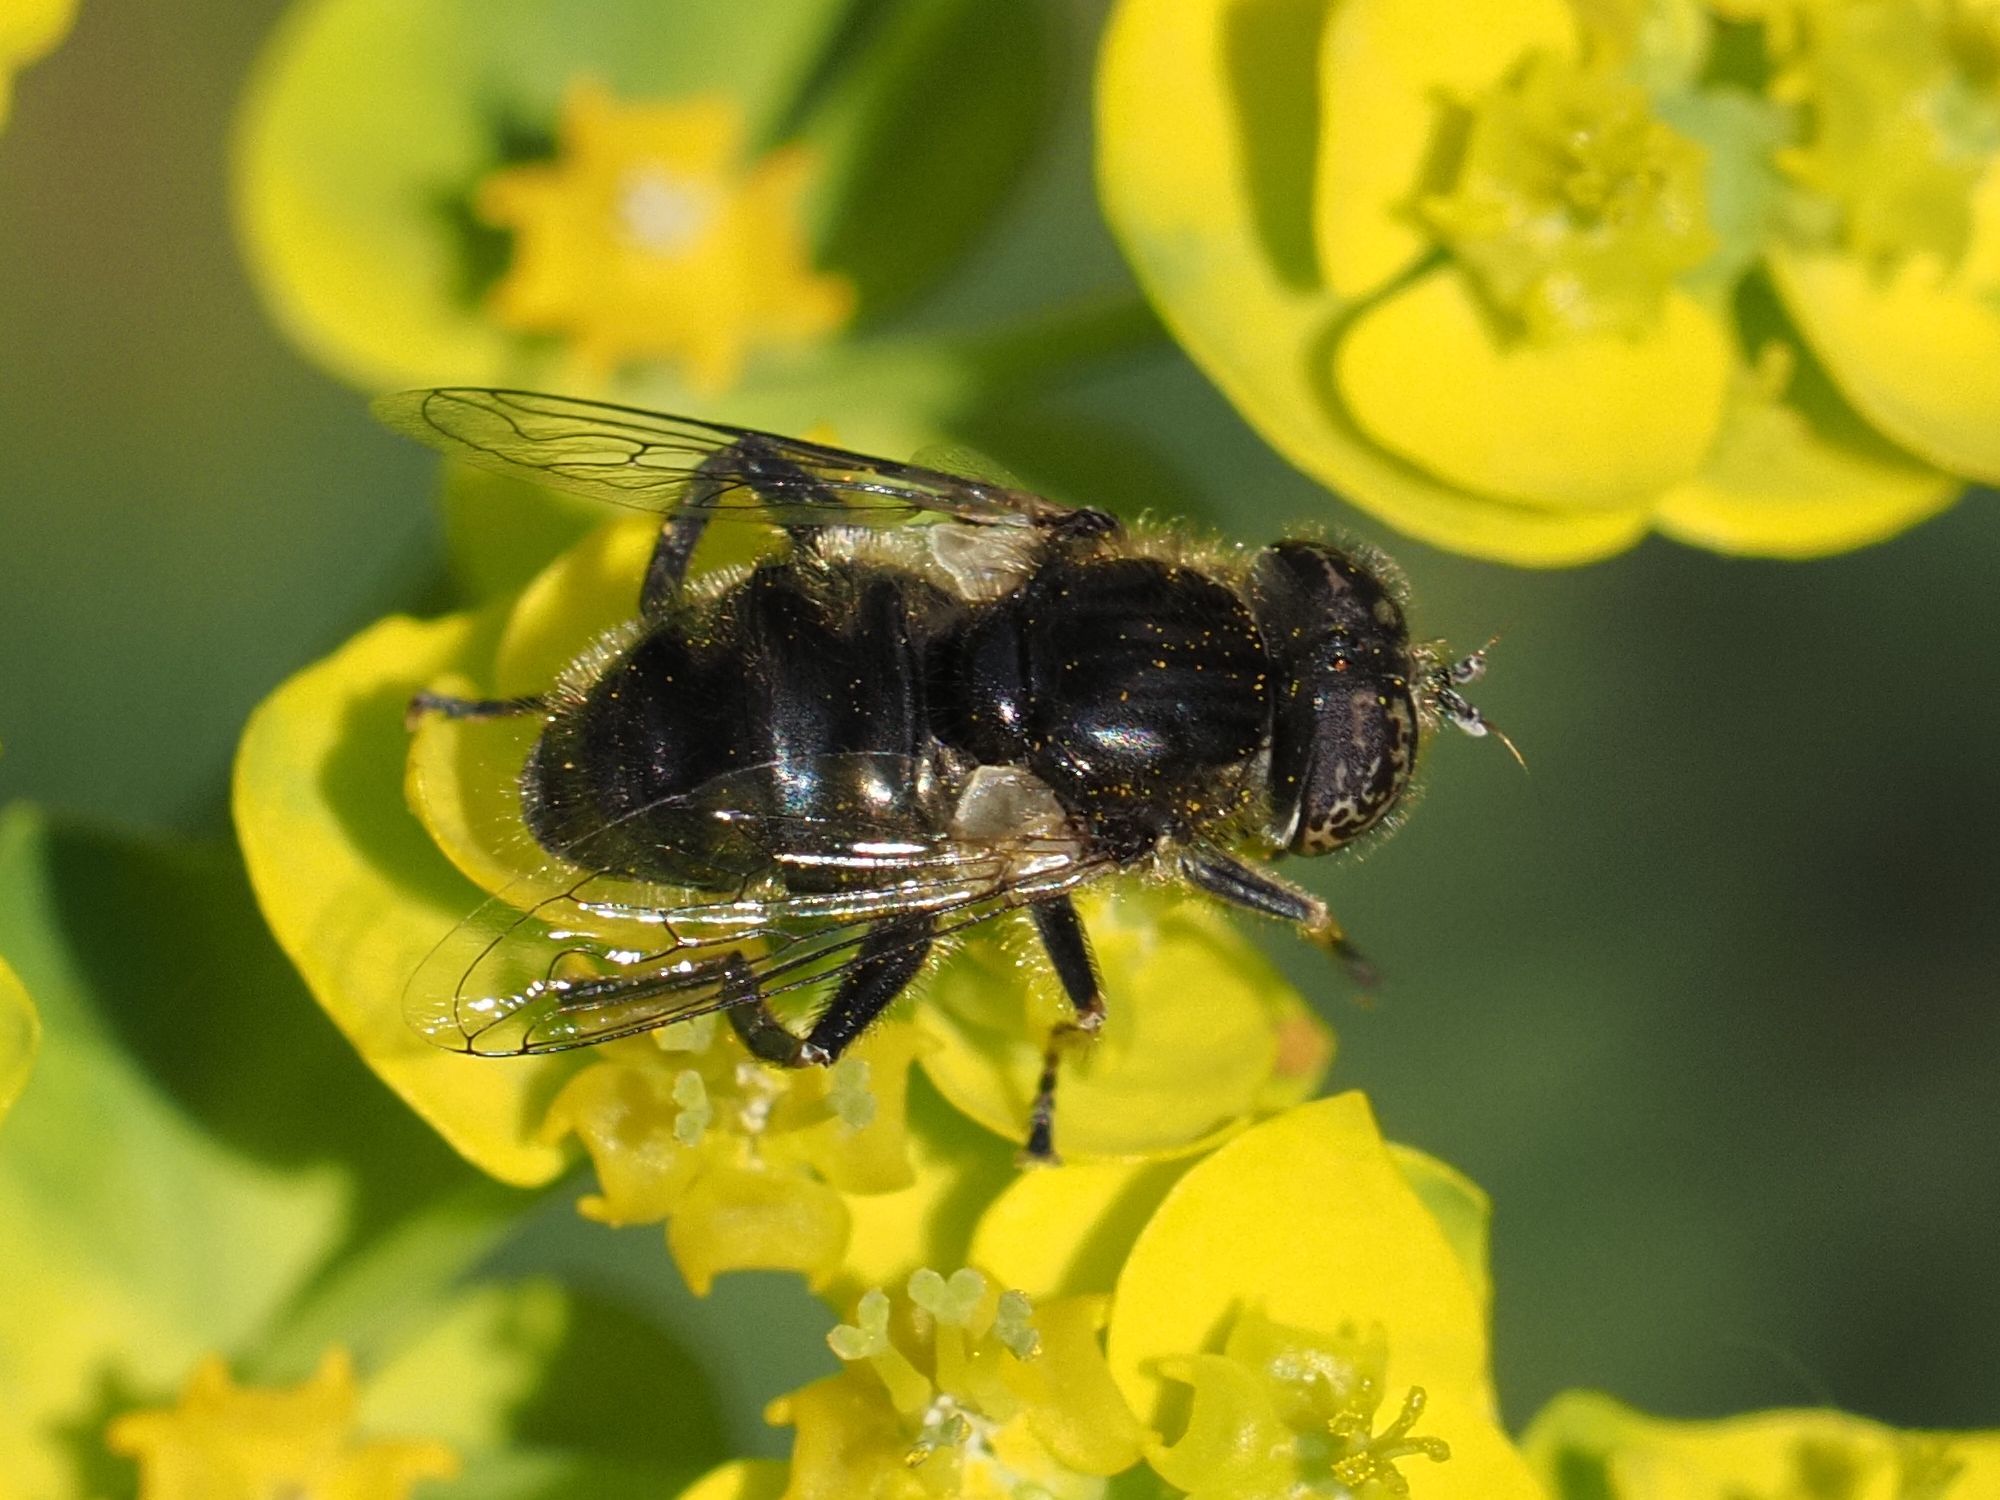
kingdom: Animalia
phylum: Arthropoda
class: Insecta
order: Diptera
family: Syrphidae
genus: Eristalinus
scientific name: Eristalinus sepulchralis
